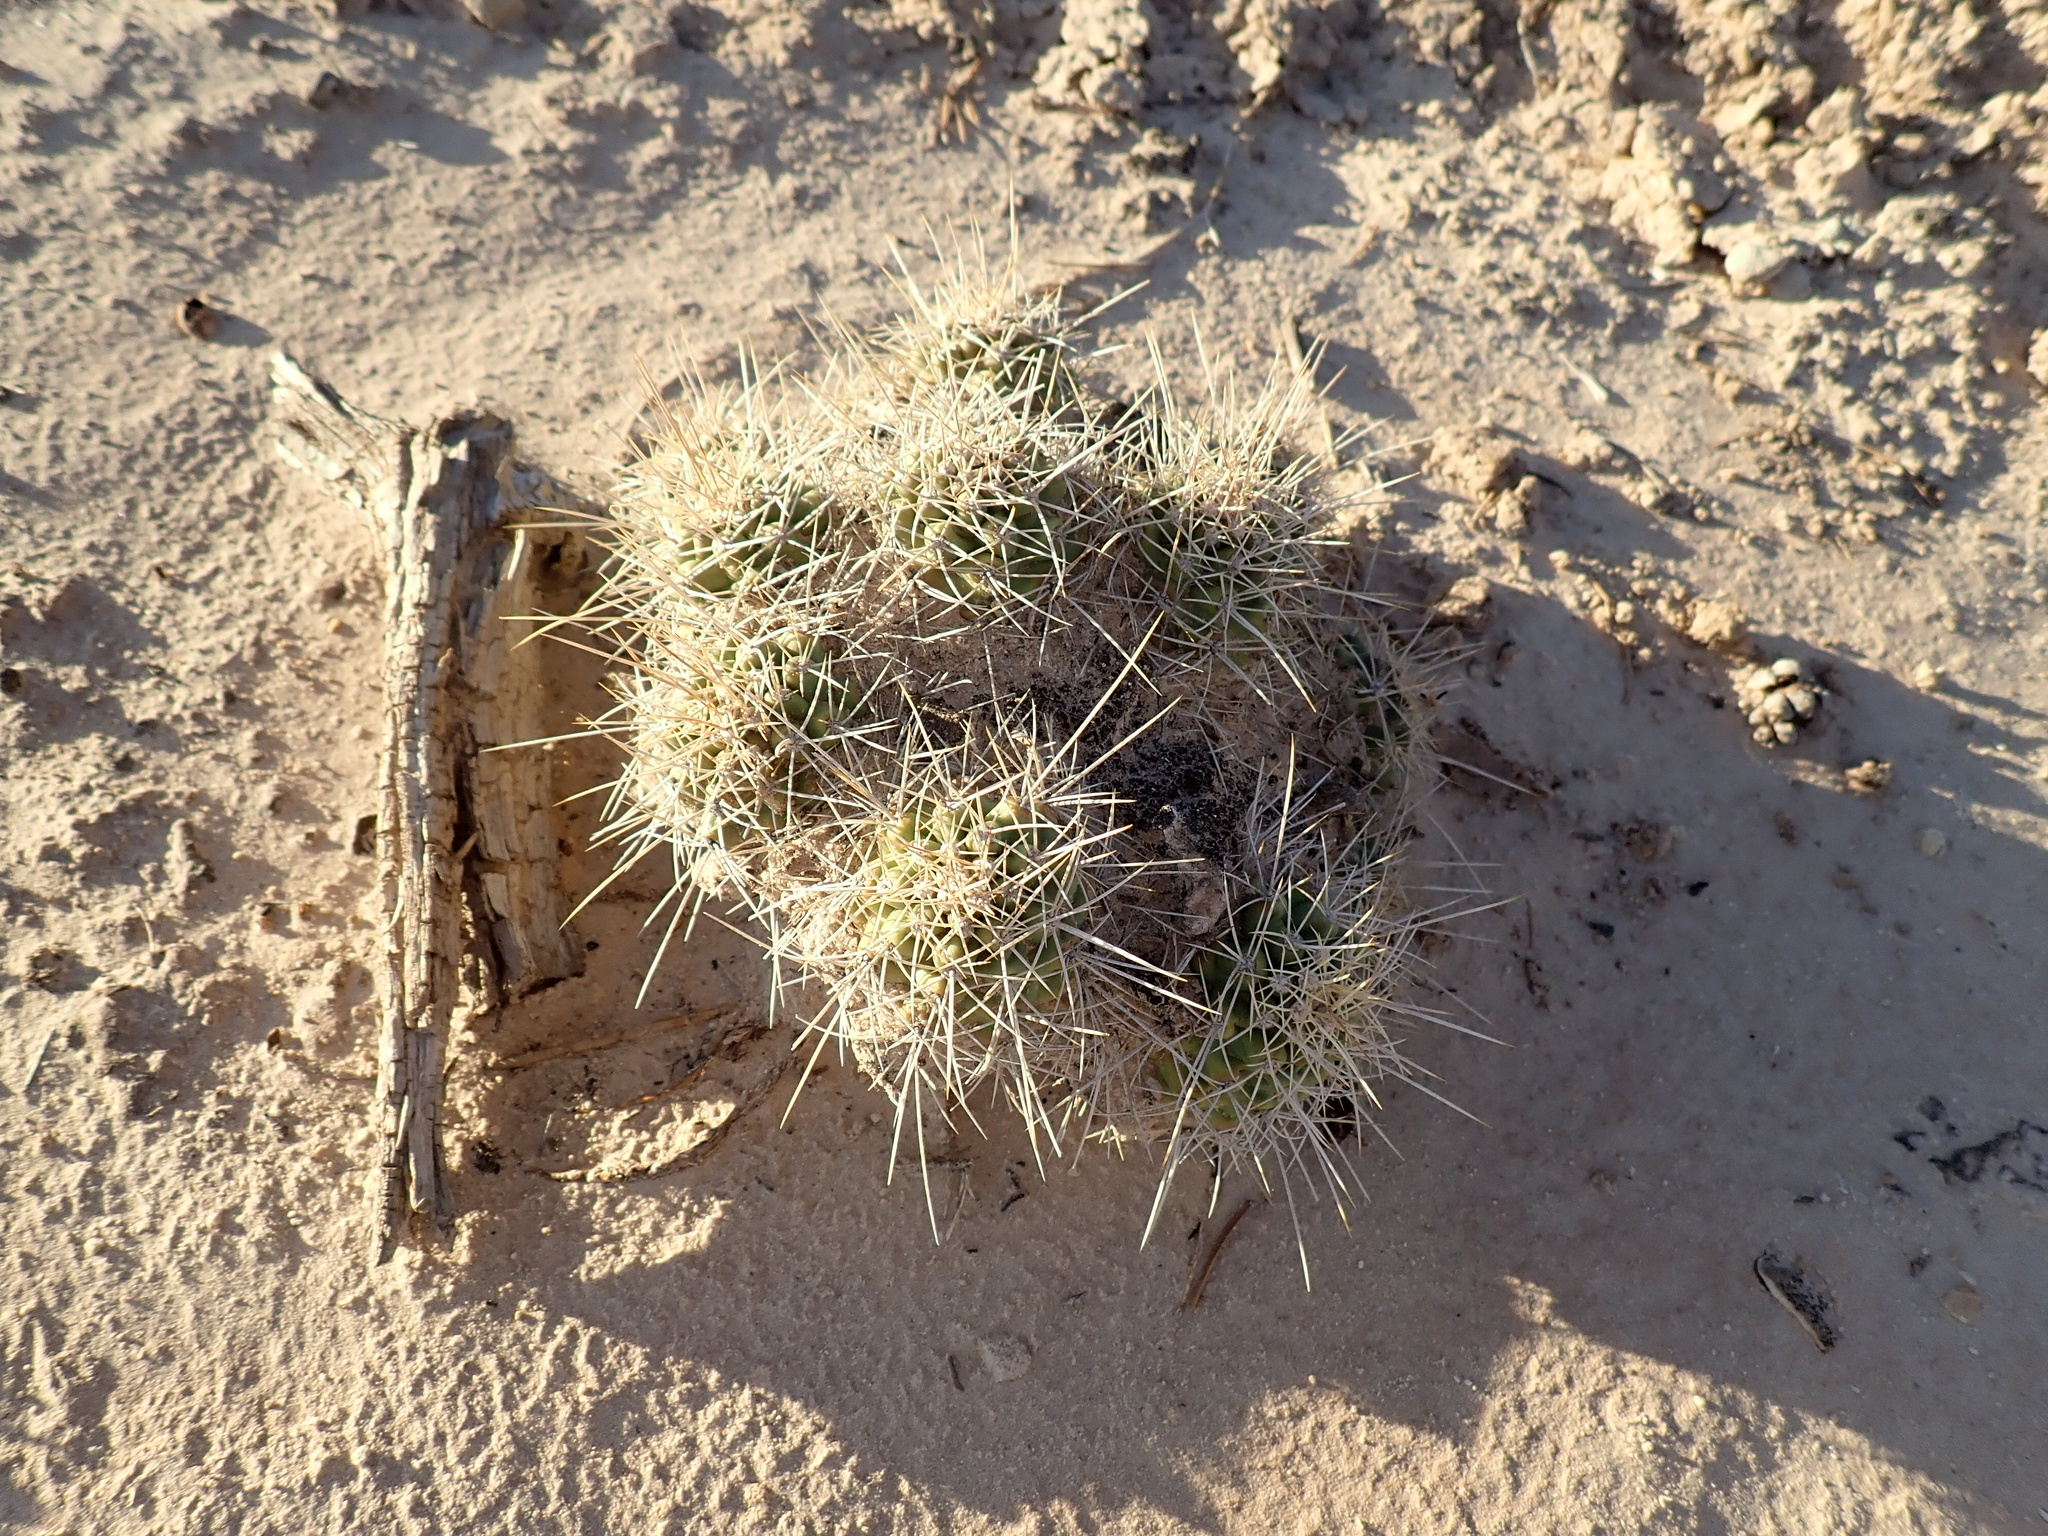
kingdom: Plantae
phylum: Tracheophyta
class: Magnoliopsida
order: Caryophyllales
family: Cactaceae
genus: Echinocereus
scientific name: Echinocereus triglochidiatus
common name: Claretcup hedgehog
